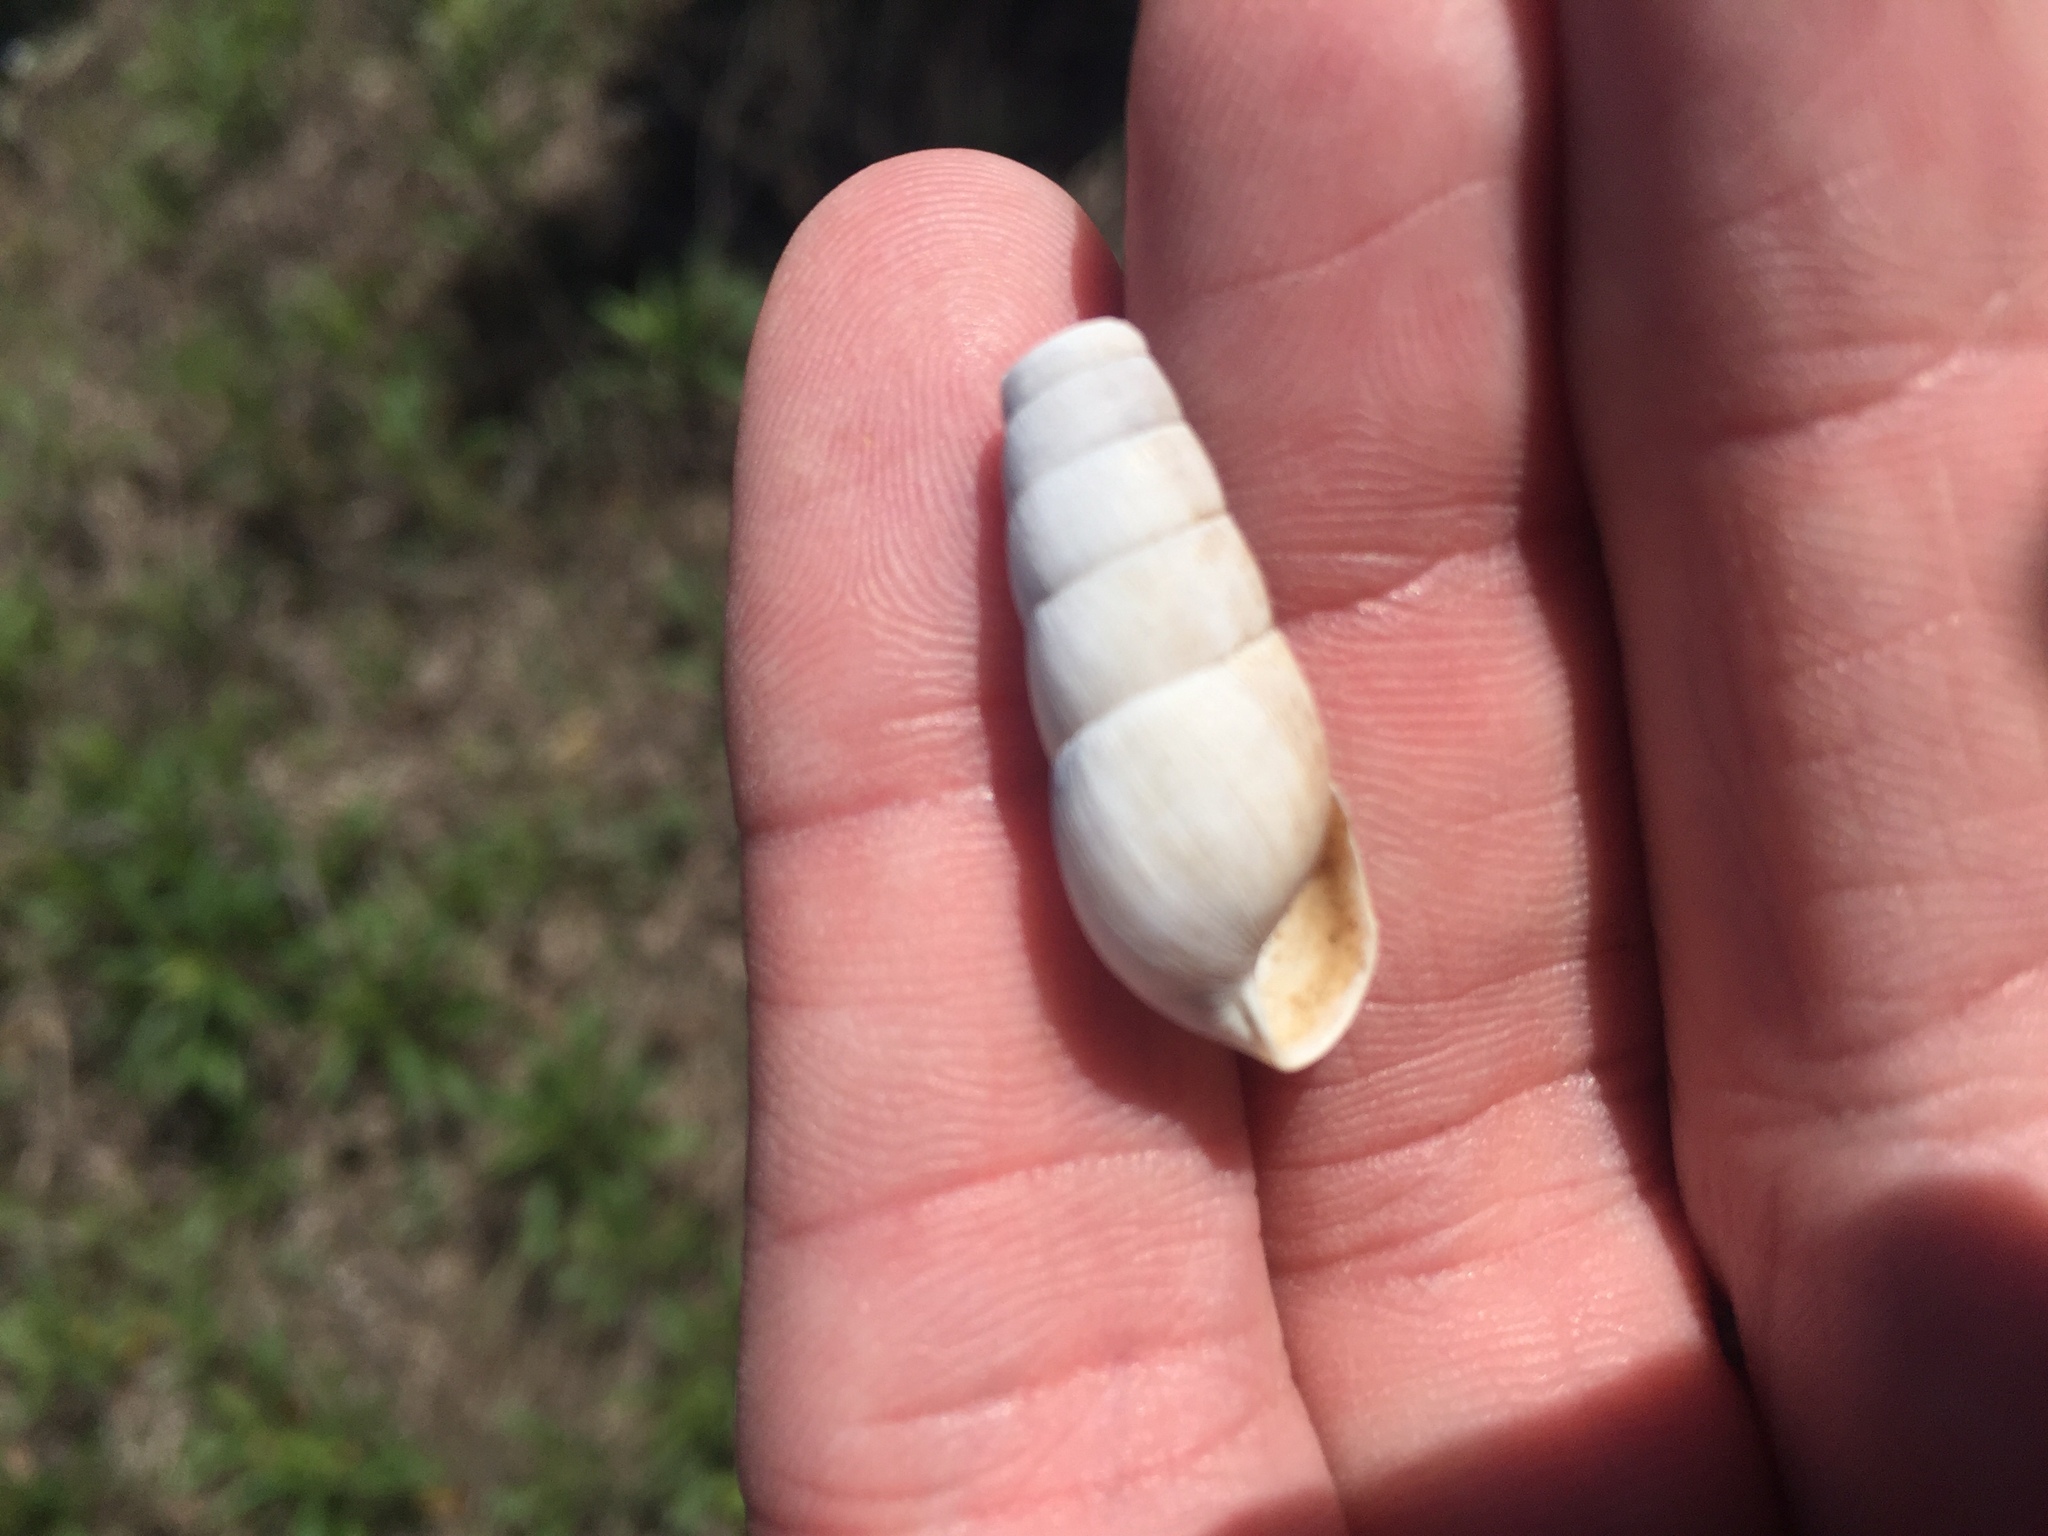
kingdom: Animalia
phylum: Mollusca
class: Gastropoda
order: Stylommatophora
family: Achatinidae
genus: Rumina
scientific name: Rumina decollata
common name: Decollate snail
